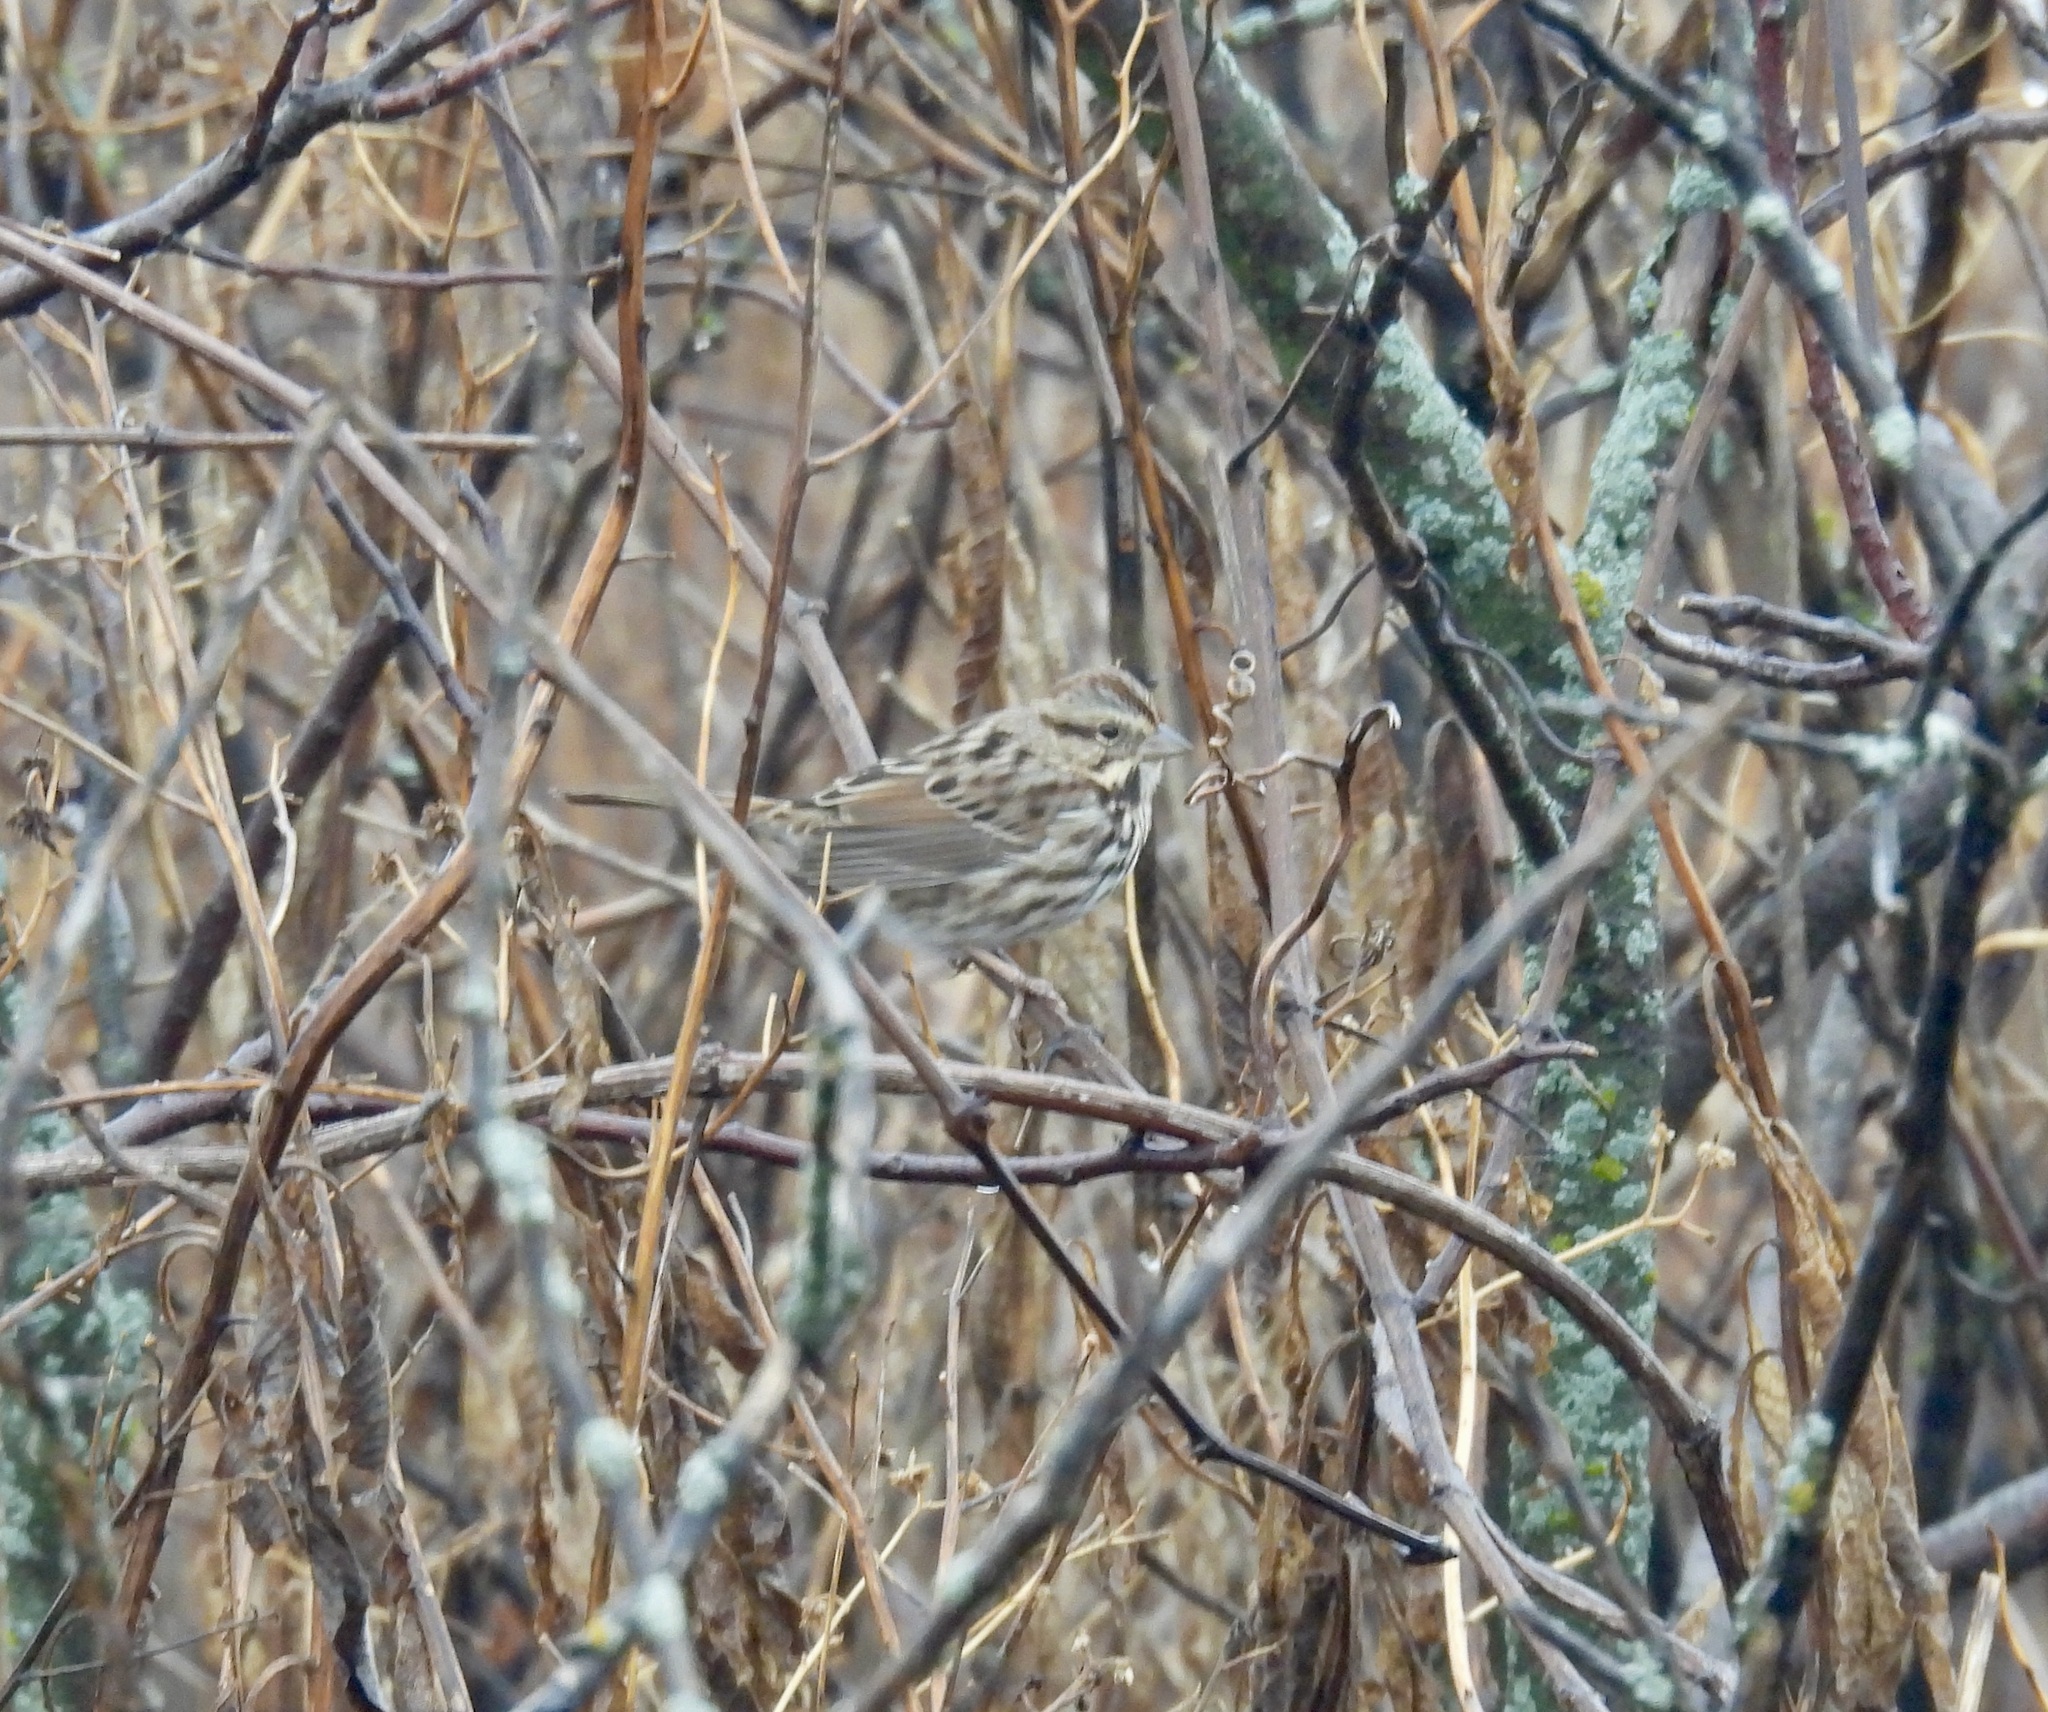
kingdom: Animalia
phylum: Chordata
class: Aves
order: Passeriformes
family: Passerellidae
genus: Melospiza
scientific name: Melospiza melodia
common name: Song sparrow
